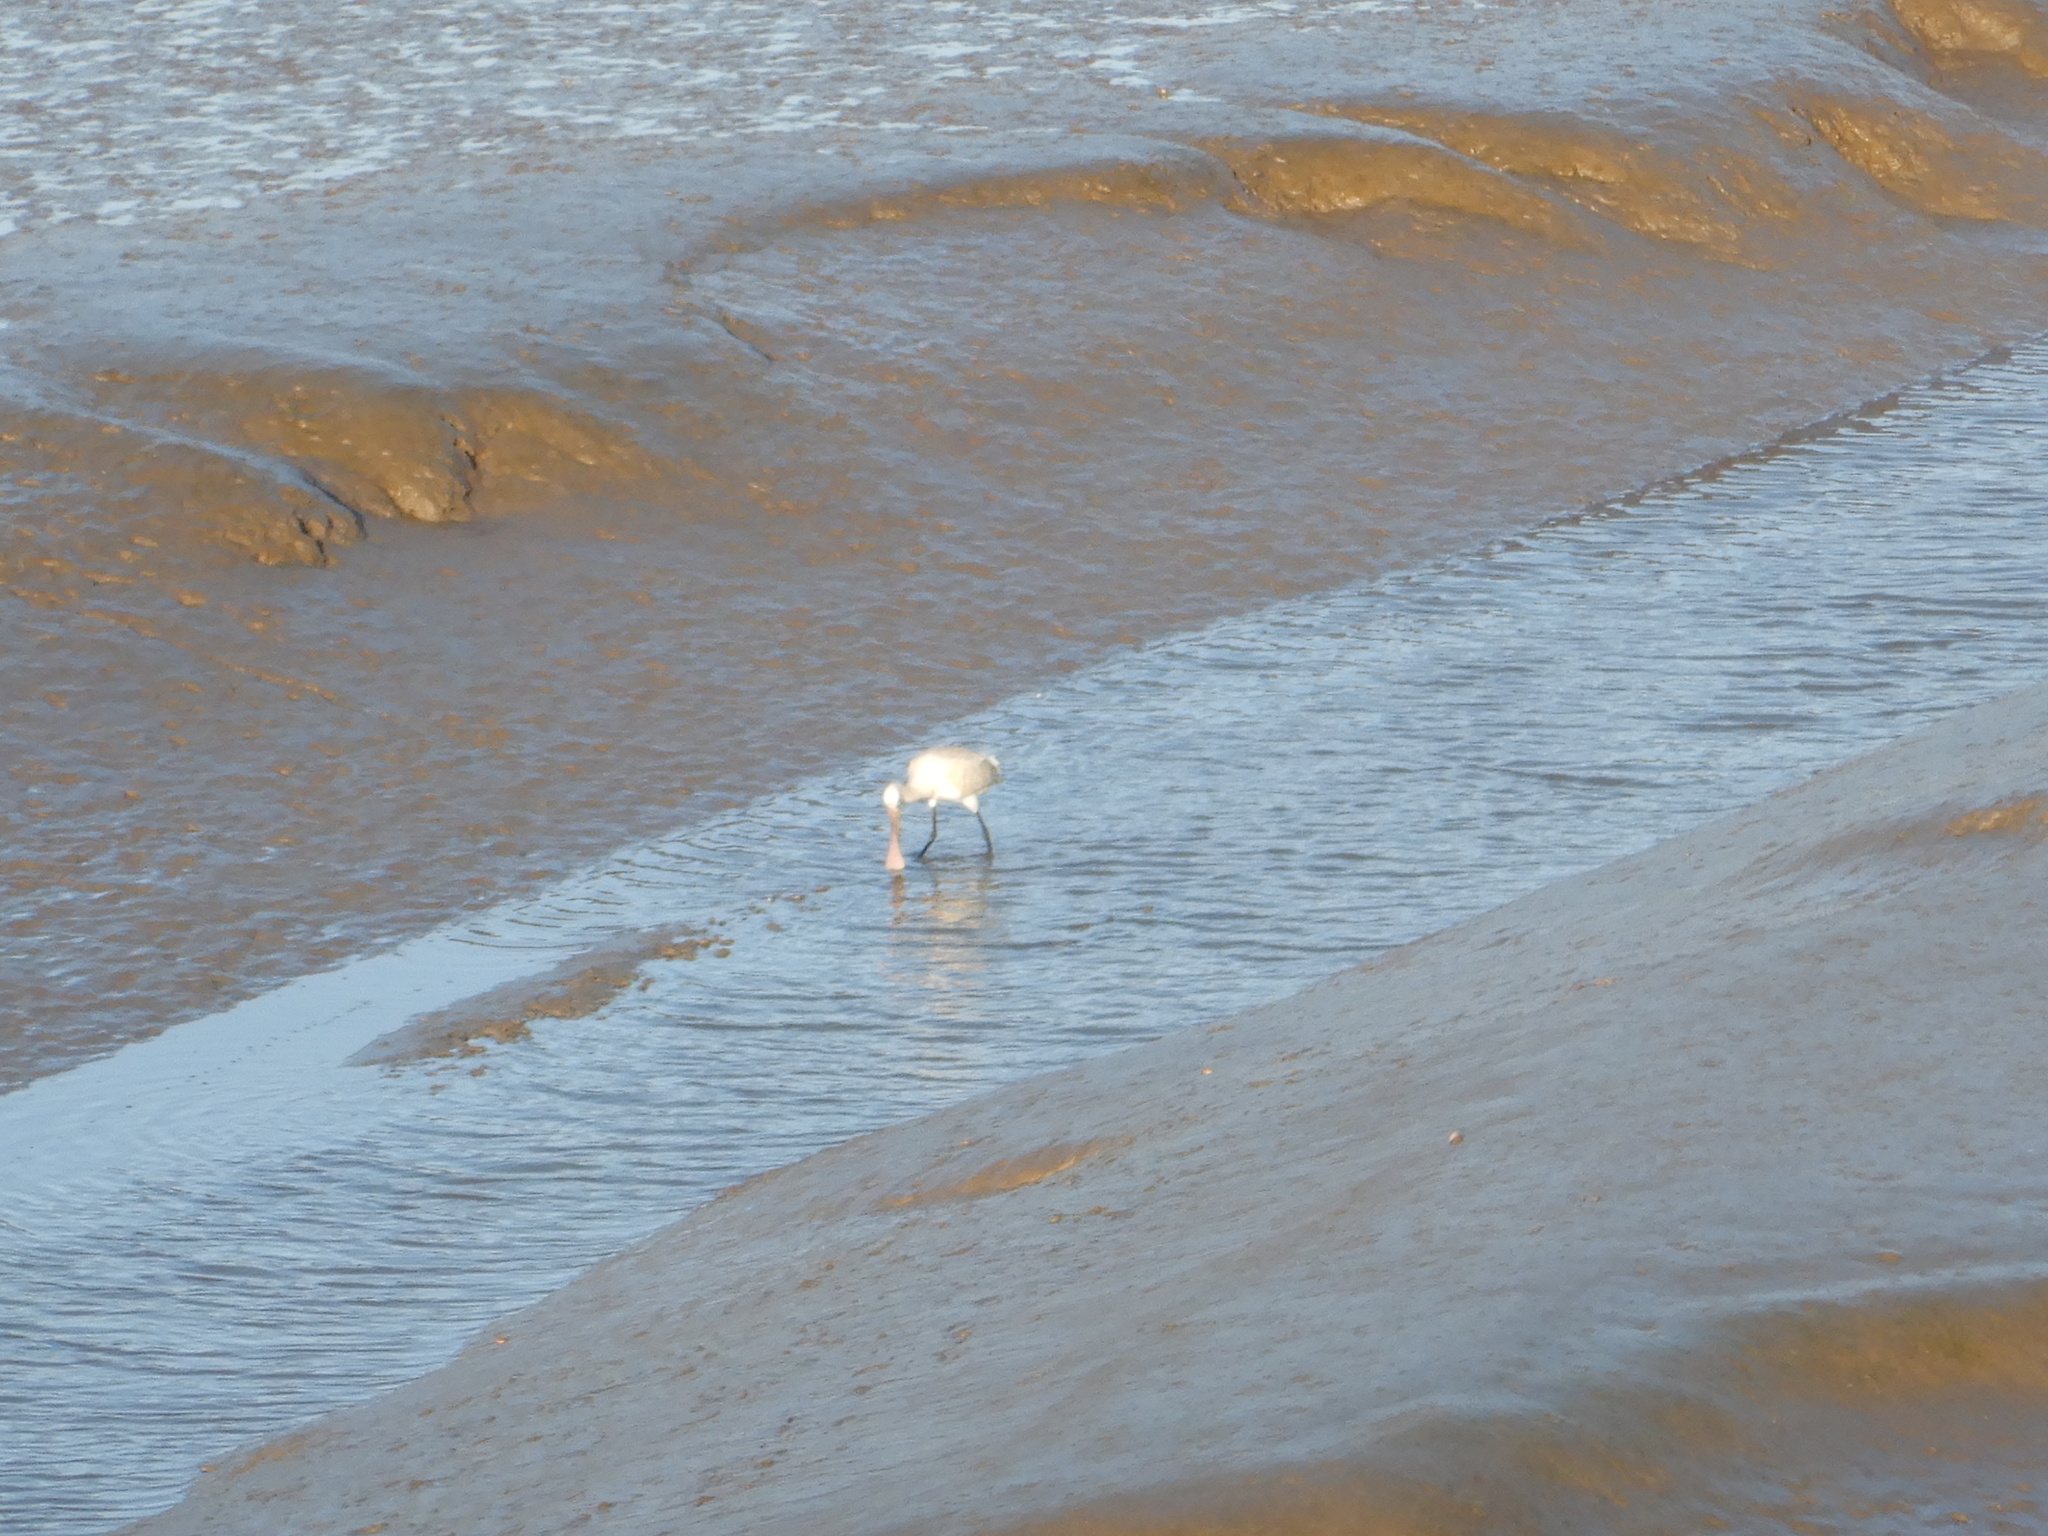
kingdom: Animalia
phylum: Chordata
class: Aves
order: Pelecaniformes
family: Threskiornithidae
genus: Platalea
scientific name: Platalea leucorodia
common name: Eurasian spoonbill
